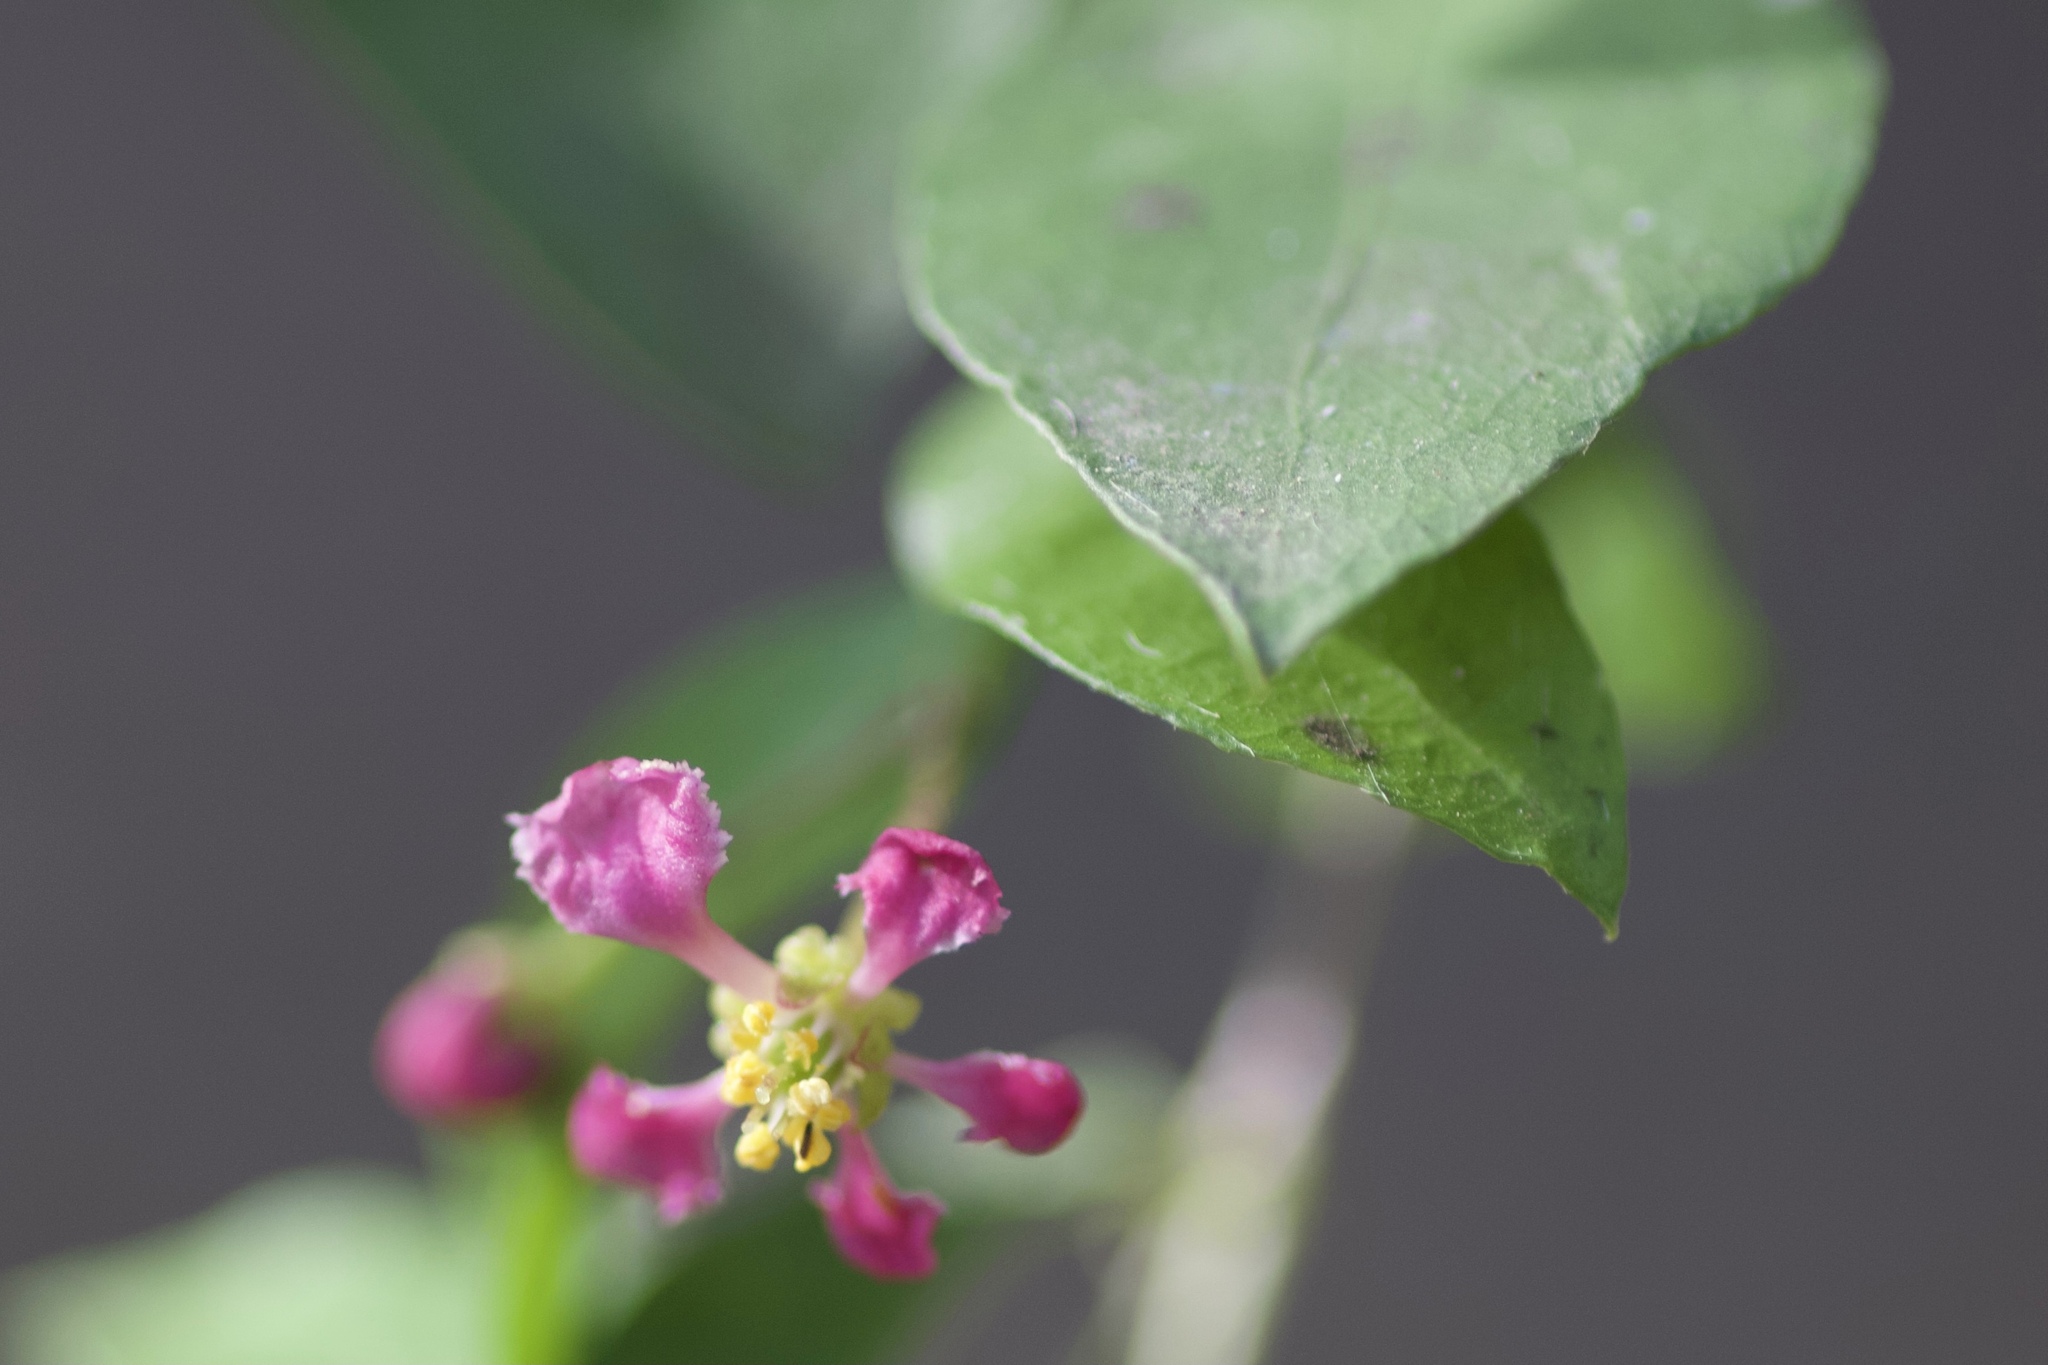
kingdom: Plantae
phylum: Tracheophyta
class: Magnoliopsida
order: Malpighiales
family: Malpighiaceae
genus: Malpighia
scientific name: Malpighia glabra
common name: Barbados cherry
